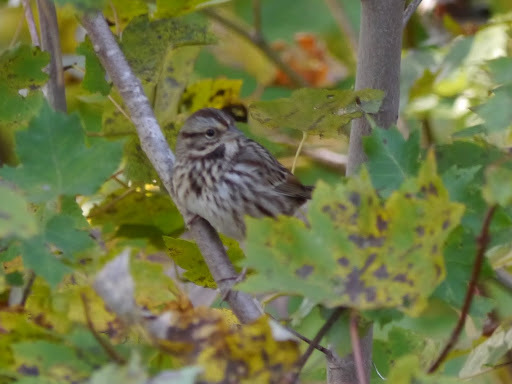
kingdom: Animalia
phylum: Chordata
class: Aves
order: Passeriformes
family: Passerellidae
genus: Melospiza
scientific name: Melospiza melodia
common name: Song sparrow
